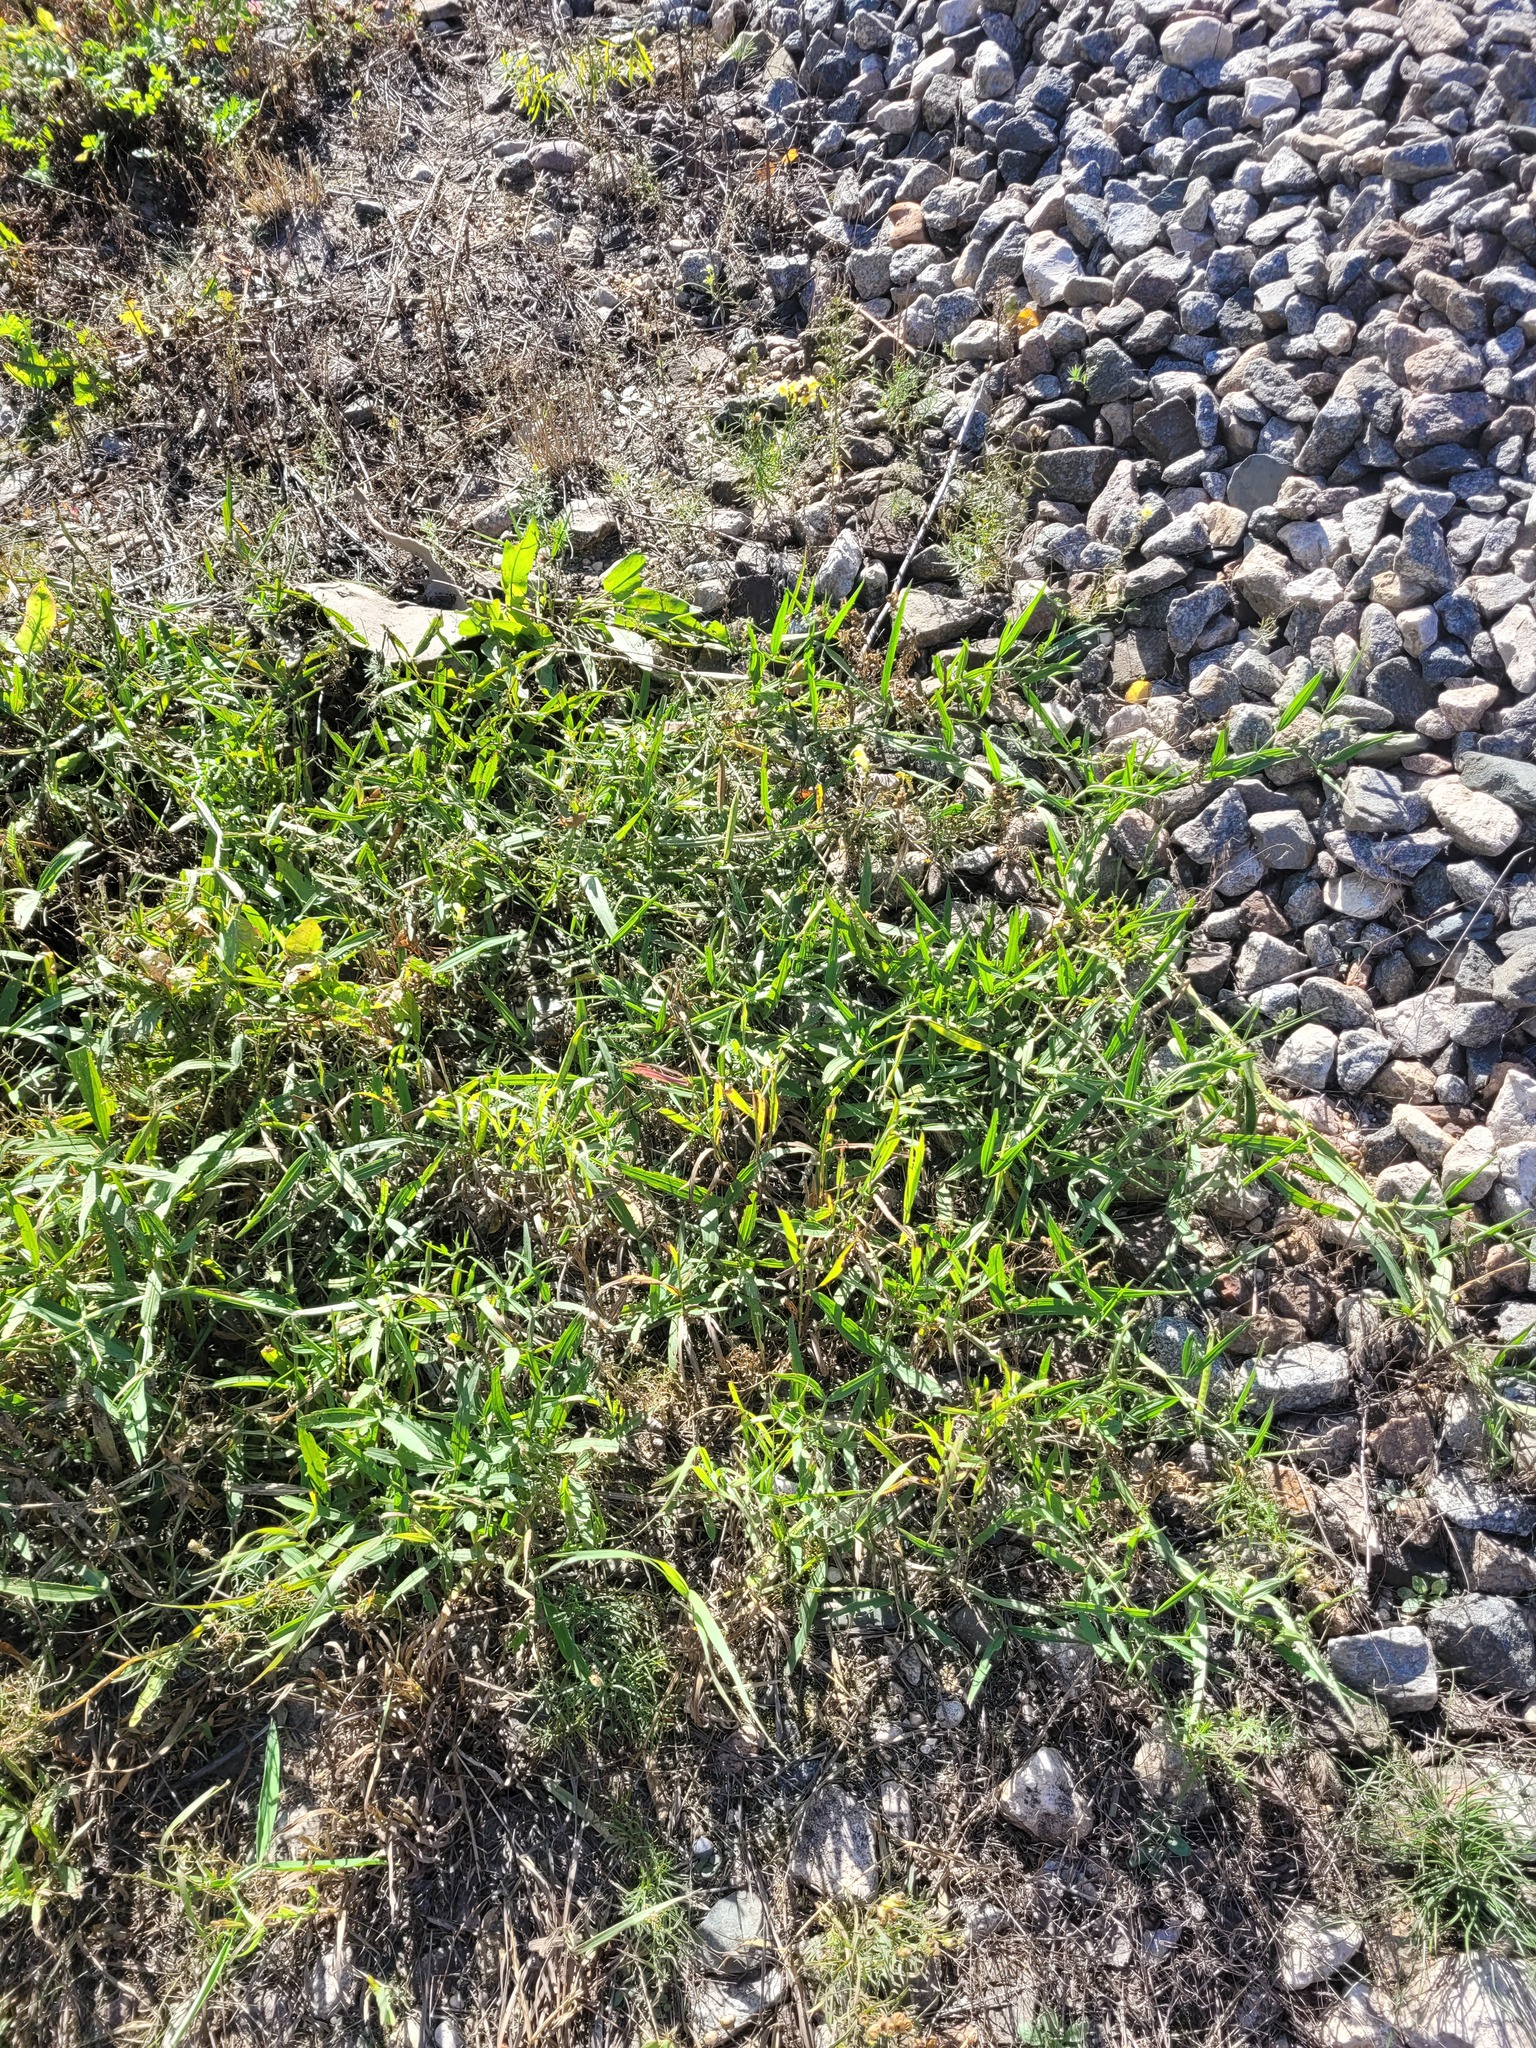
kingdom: Plantae
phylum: Tracheophyta
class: Magnoliopsida
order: Fabales
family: Fabaceae
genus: Lathyrus
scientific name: Lathyrus sylvestris
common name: Flat pea
